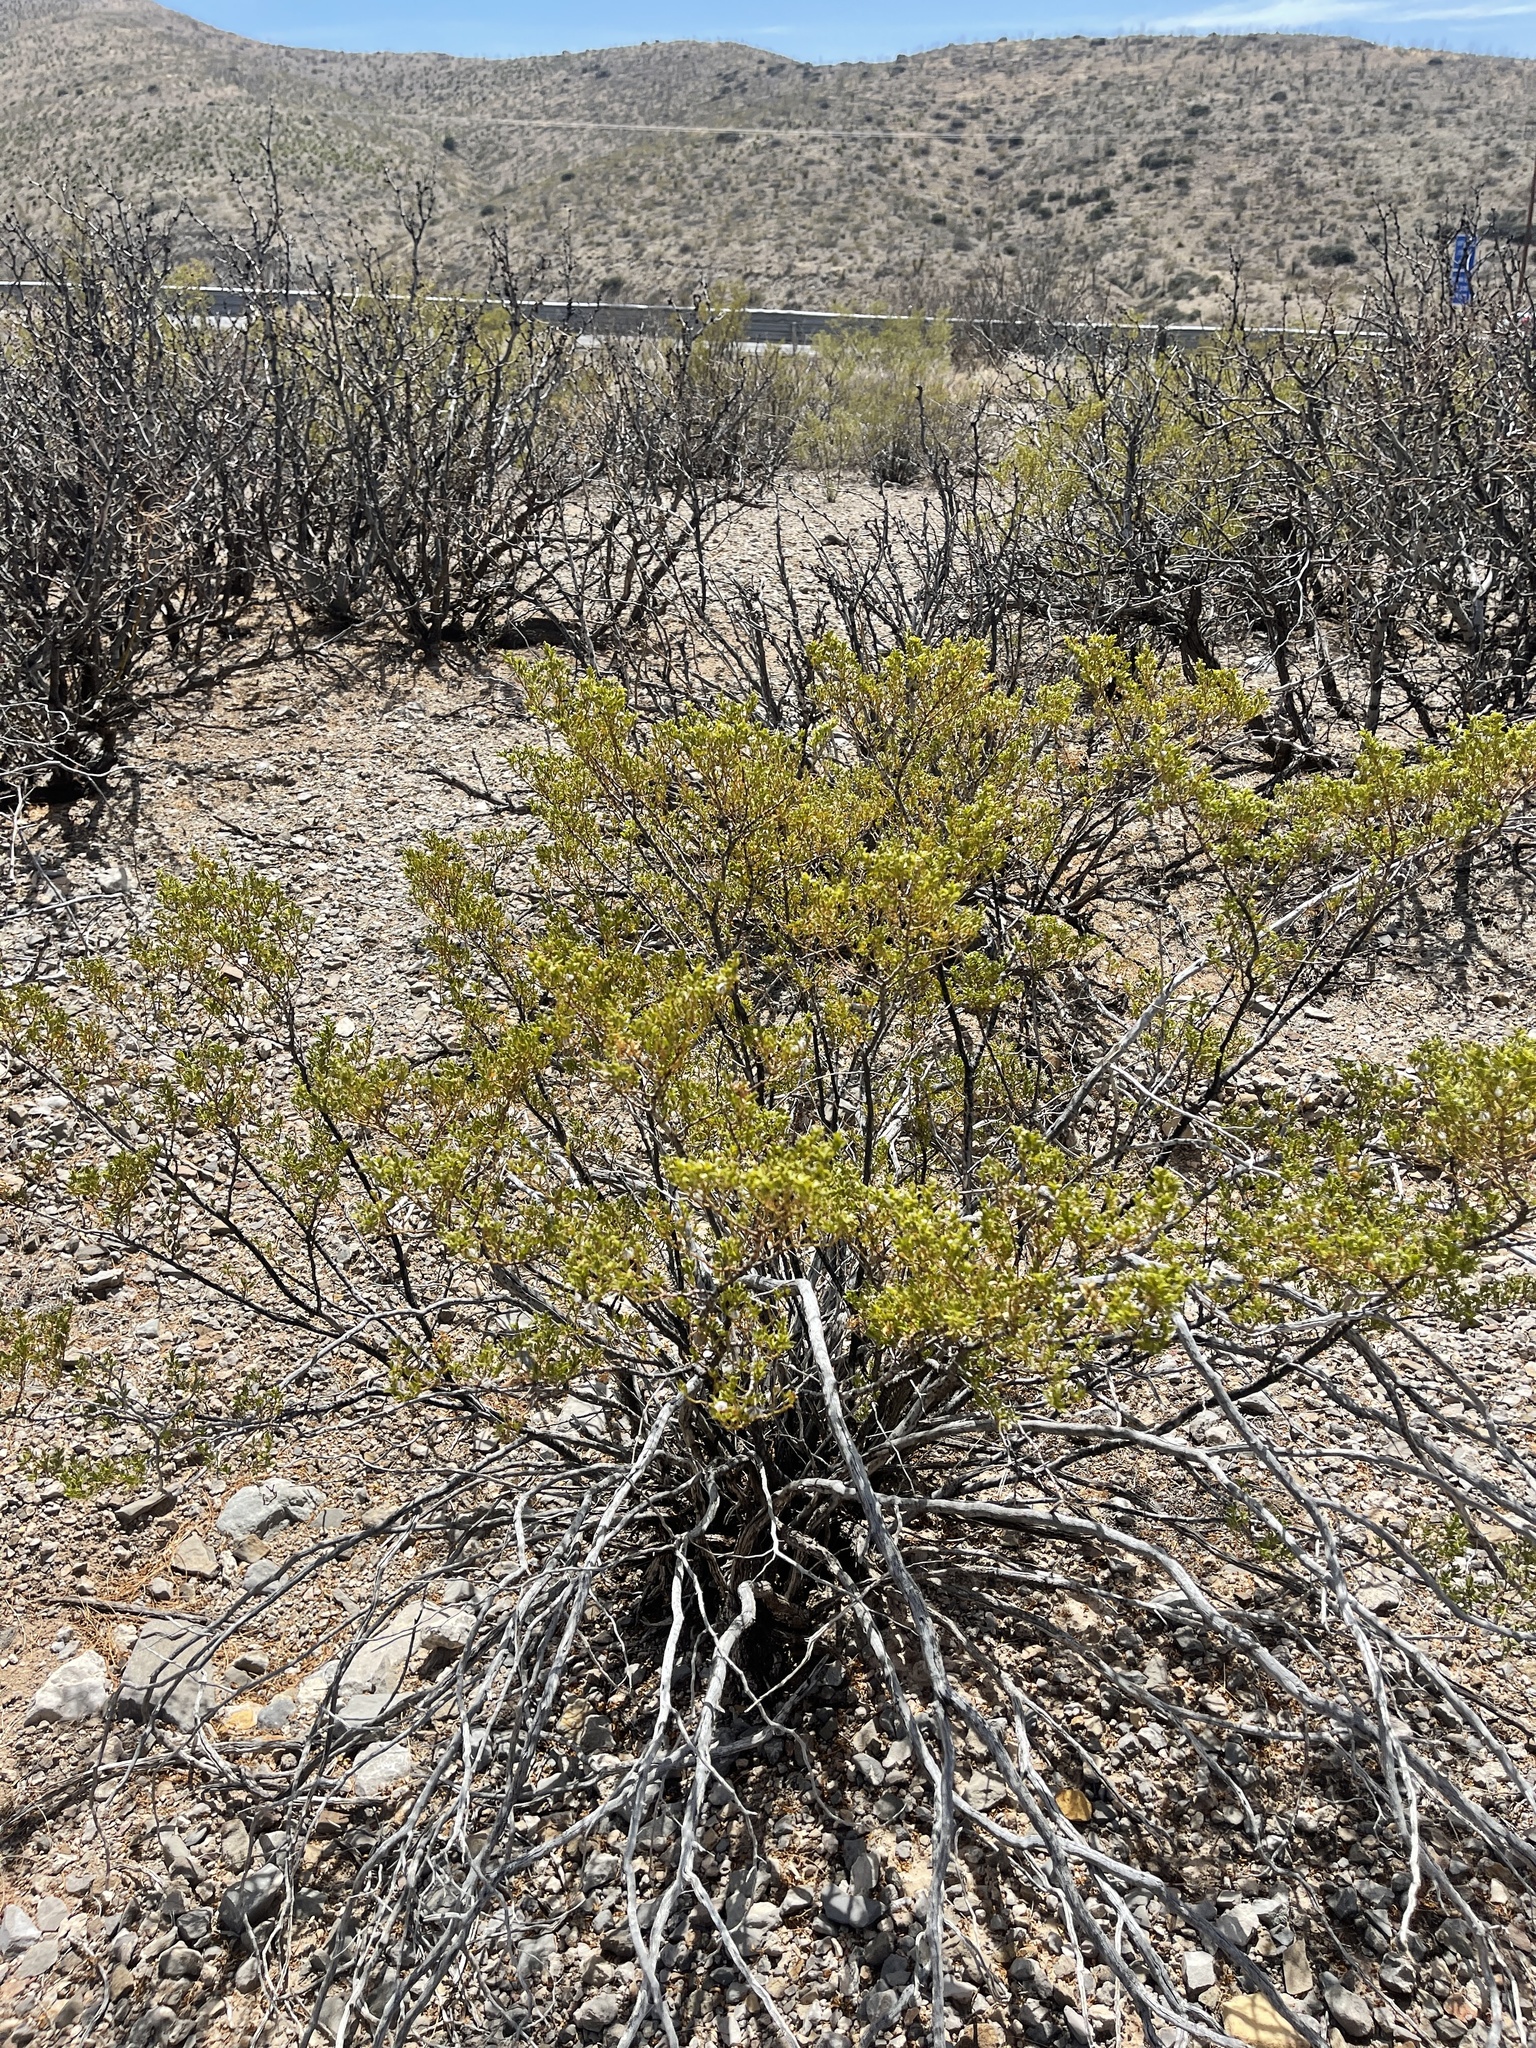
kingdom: Plantae
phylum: Tracheophyta
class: Magnoliopsida
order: Zygophyllales
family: Zygophyllaceae
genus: Larrea
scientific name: Larrea tridentata
